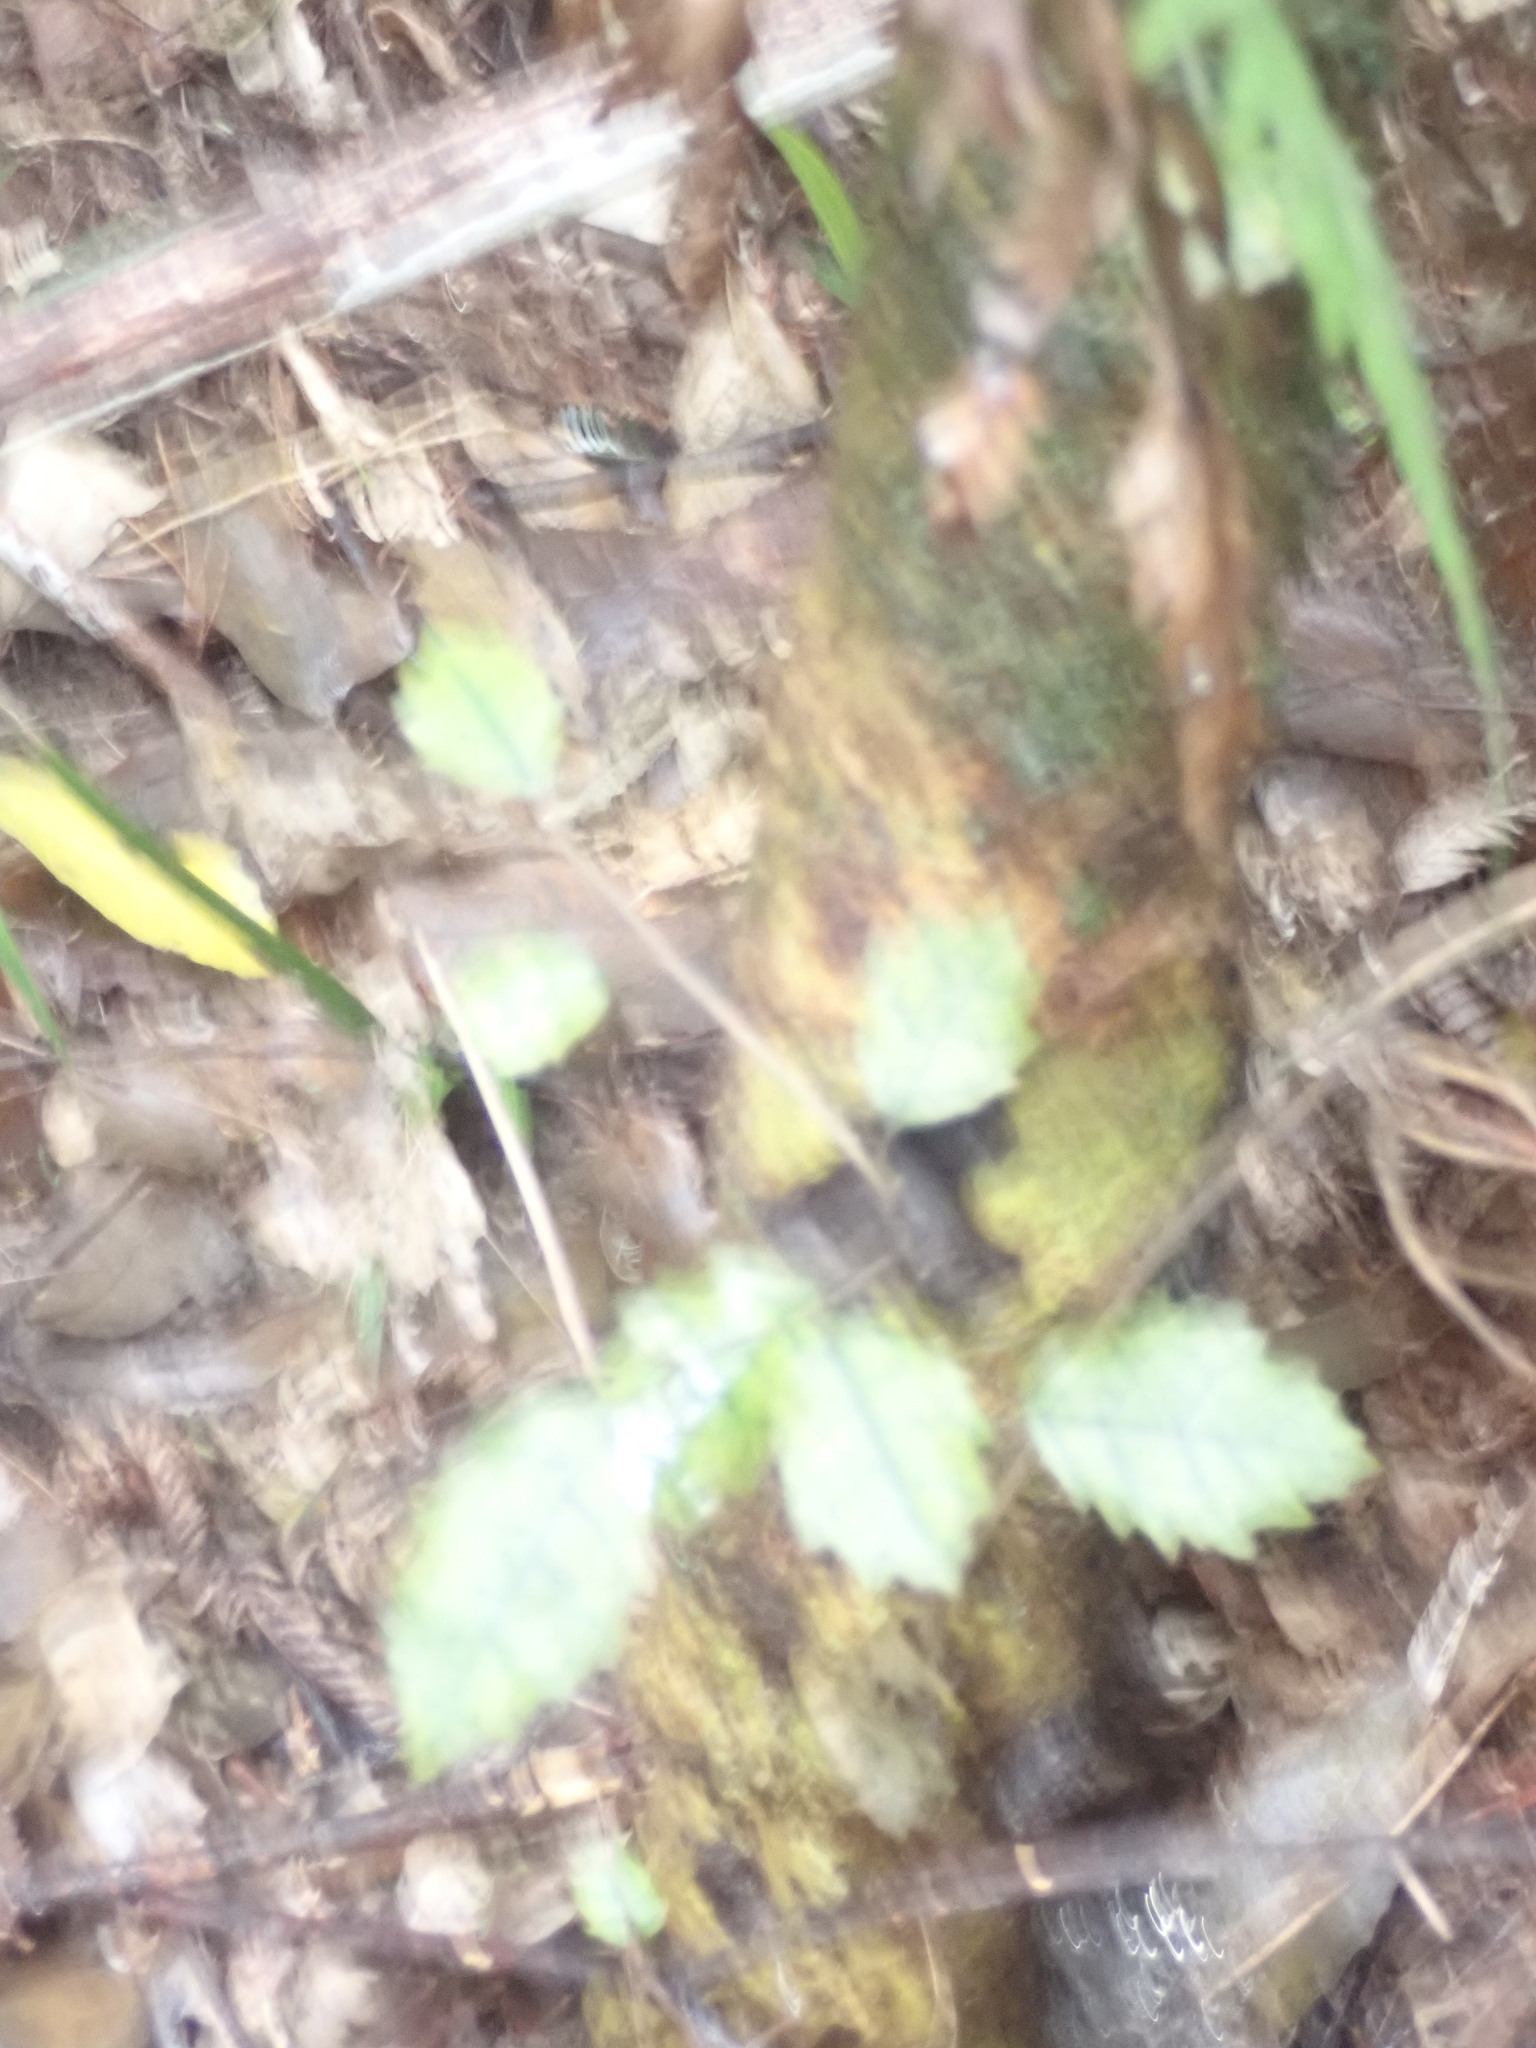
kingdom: Plantae
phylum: Tracheophyta
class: Magnoliopsida
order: Asterales
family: Rousseaceae
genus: Carpodetus
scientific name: Carpodetus serratus
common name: White mapau
